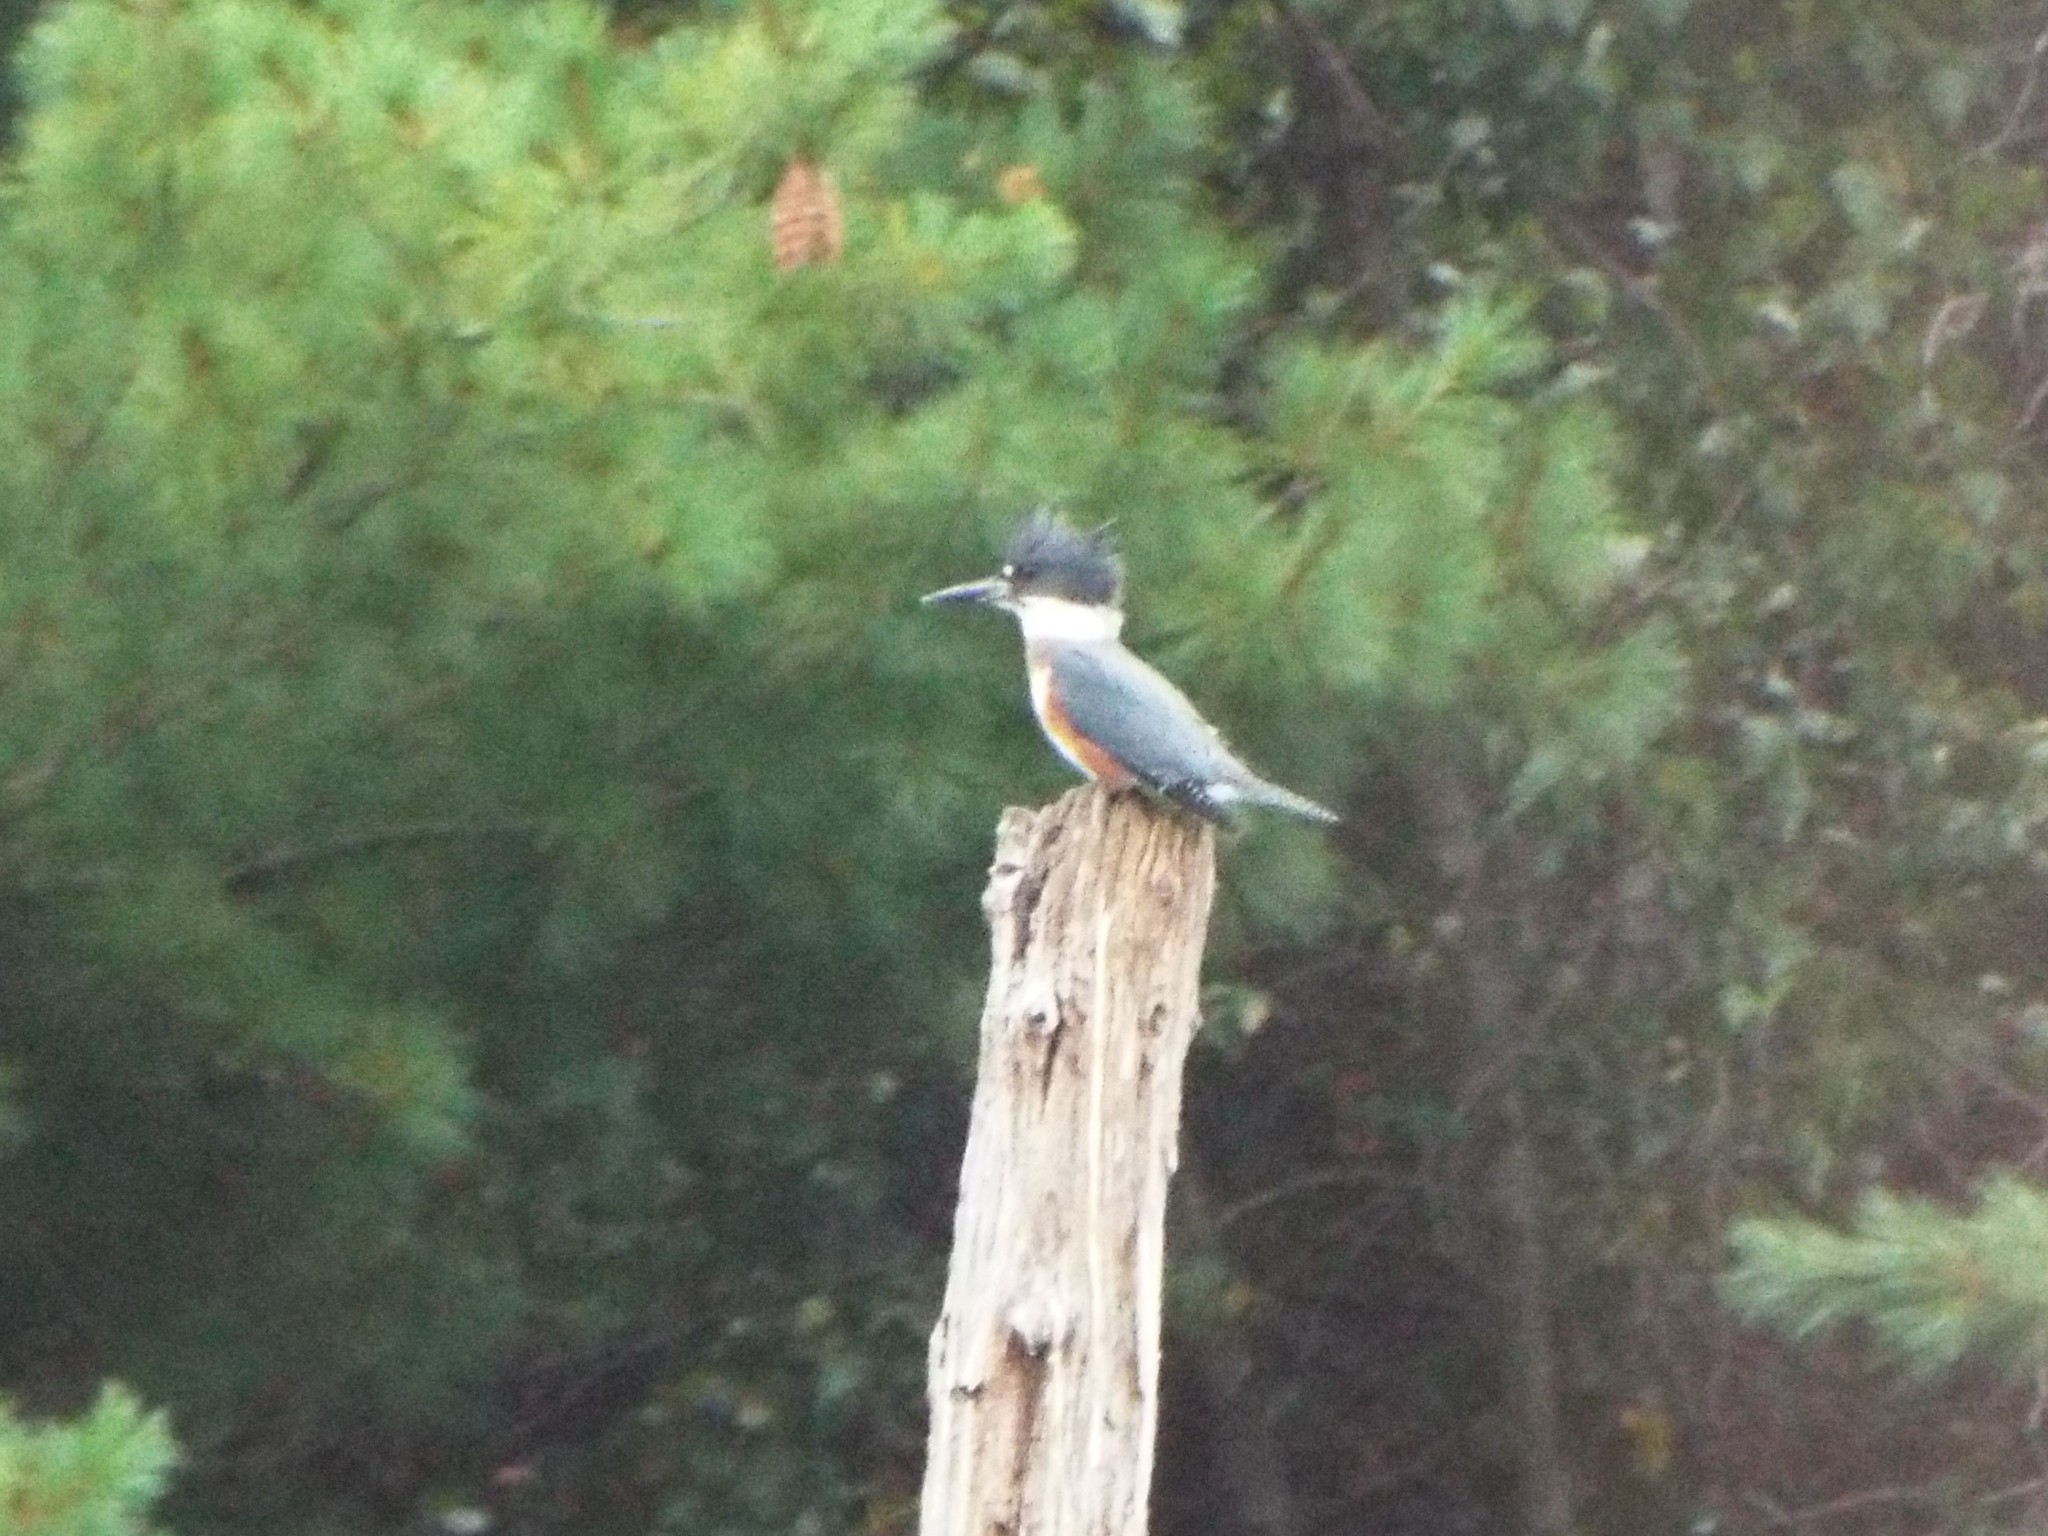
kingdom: Animalia
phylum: Chordata
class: Aves
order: Coraciiformes
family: Alcedinidae
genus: Megaceryle
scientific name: Megaceryle alcyon
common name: Belted kingfisher
